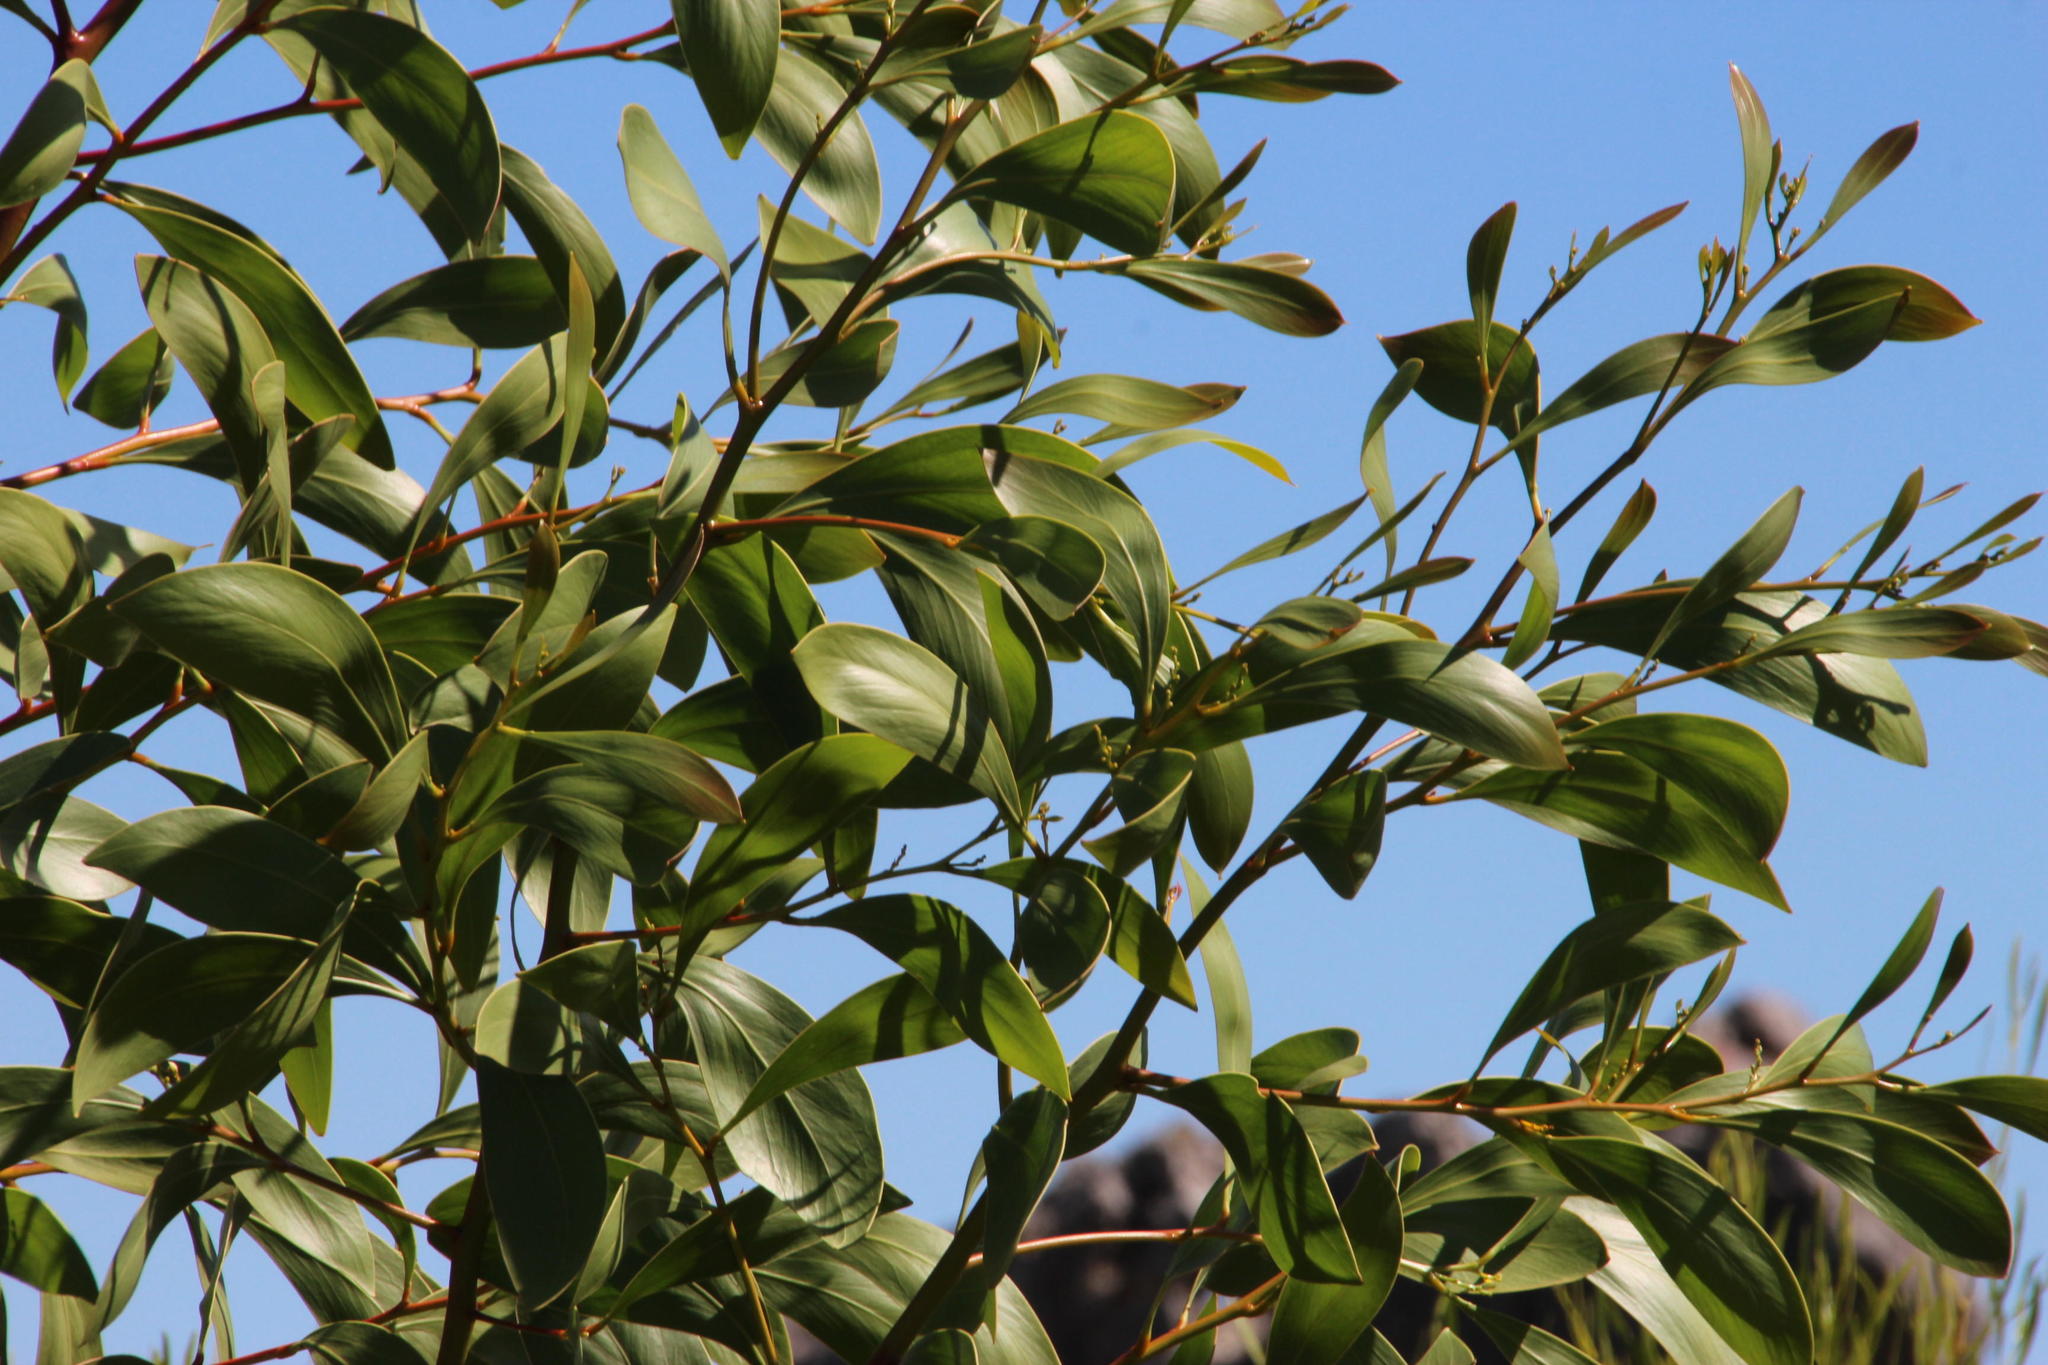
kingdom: Plantae
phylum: Tracheophyta
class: Magnoliopsida
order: Fabales
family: Fabaceae
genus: Acacia
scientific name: Acacia pycnantha
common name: Golden wattle
